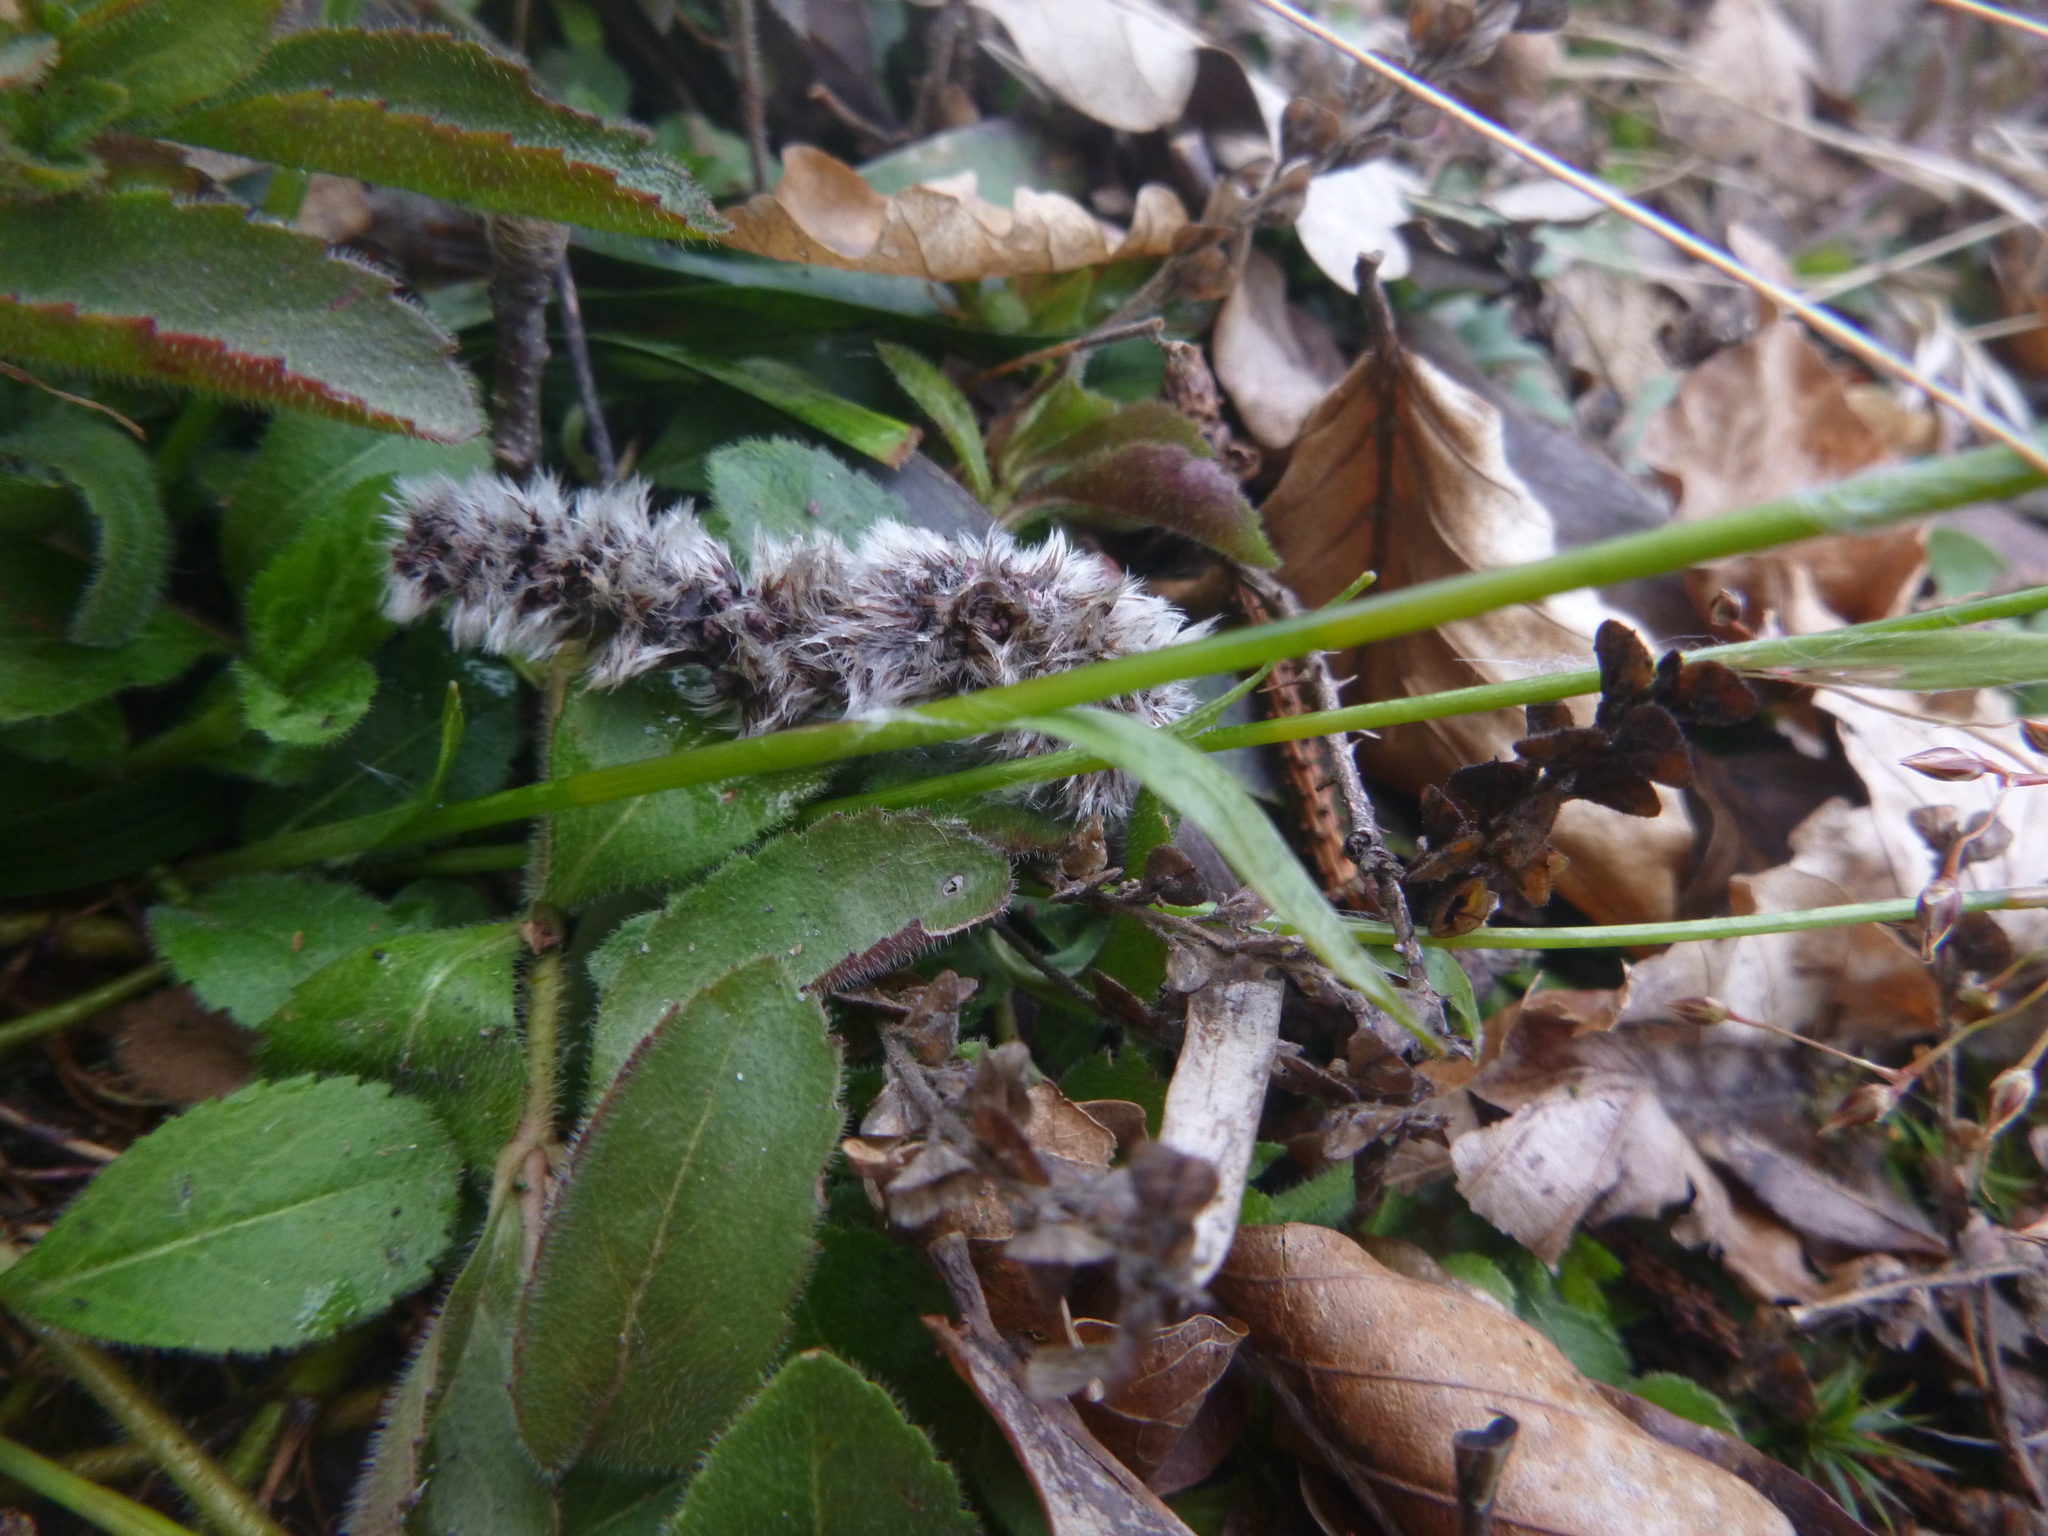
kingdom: Plantae
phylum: Tracheophyta
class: Liliopsida
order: Poales
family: Juncaceae
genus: Luzula
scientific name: Luzula pilosa
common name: Hairy wood-rush
